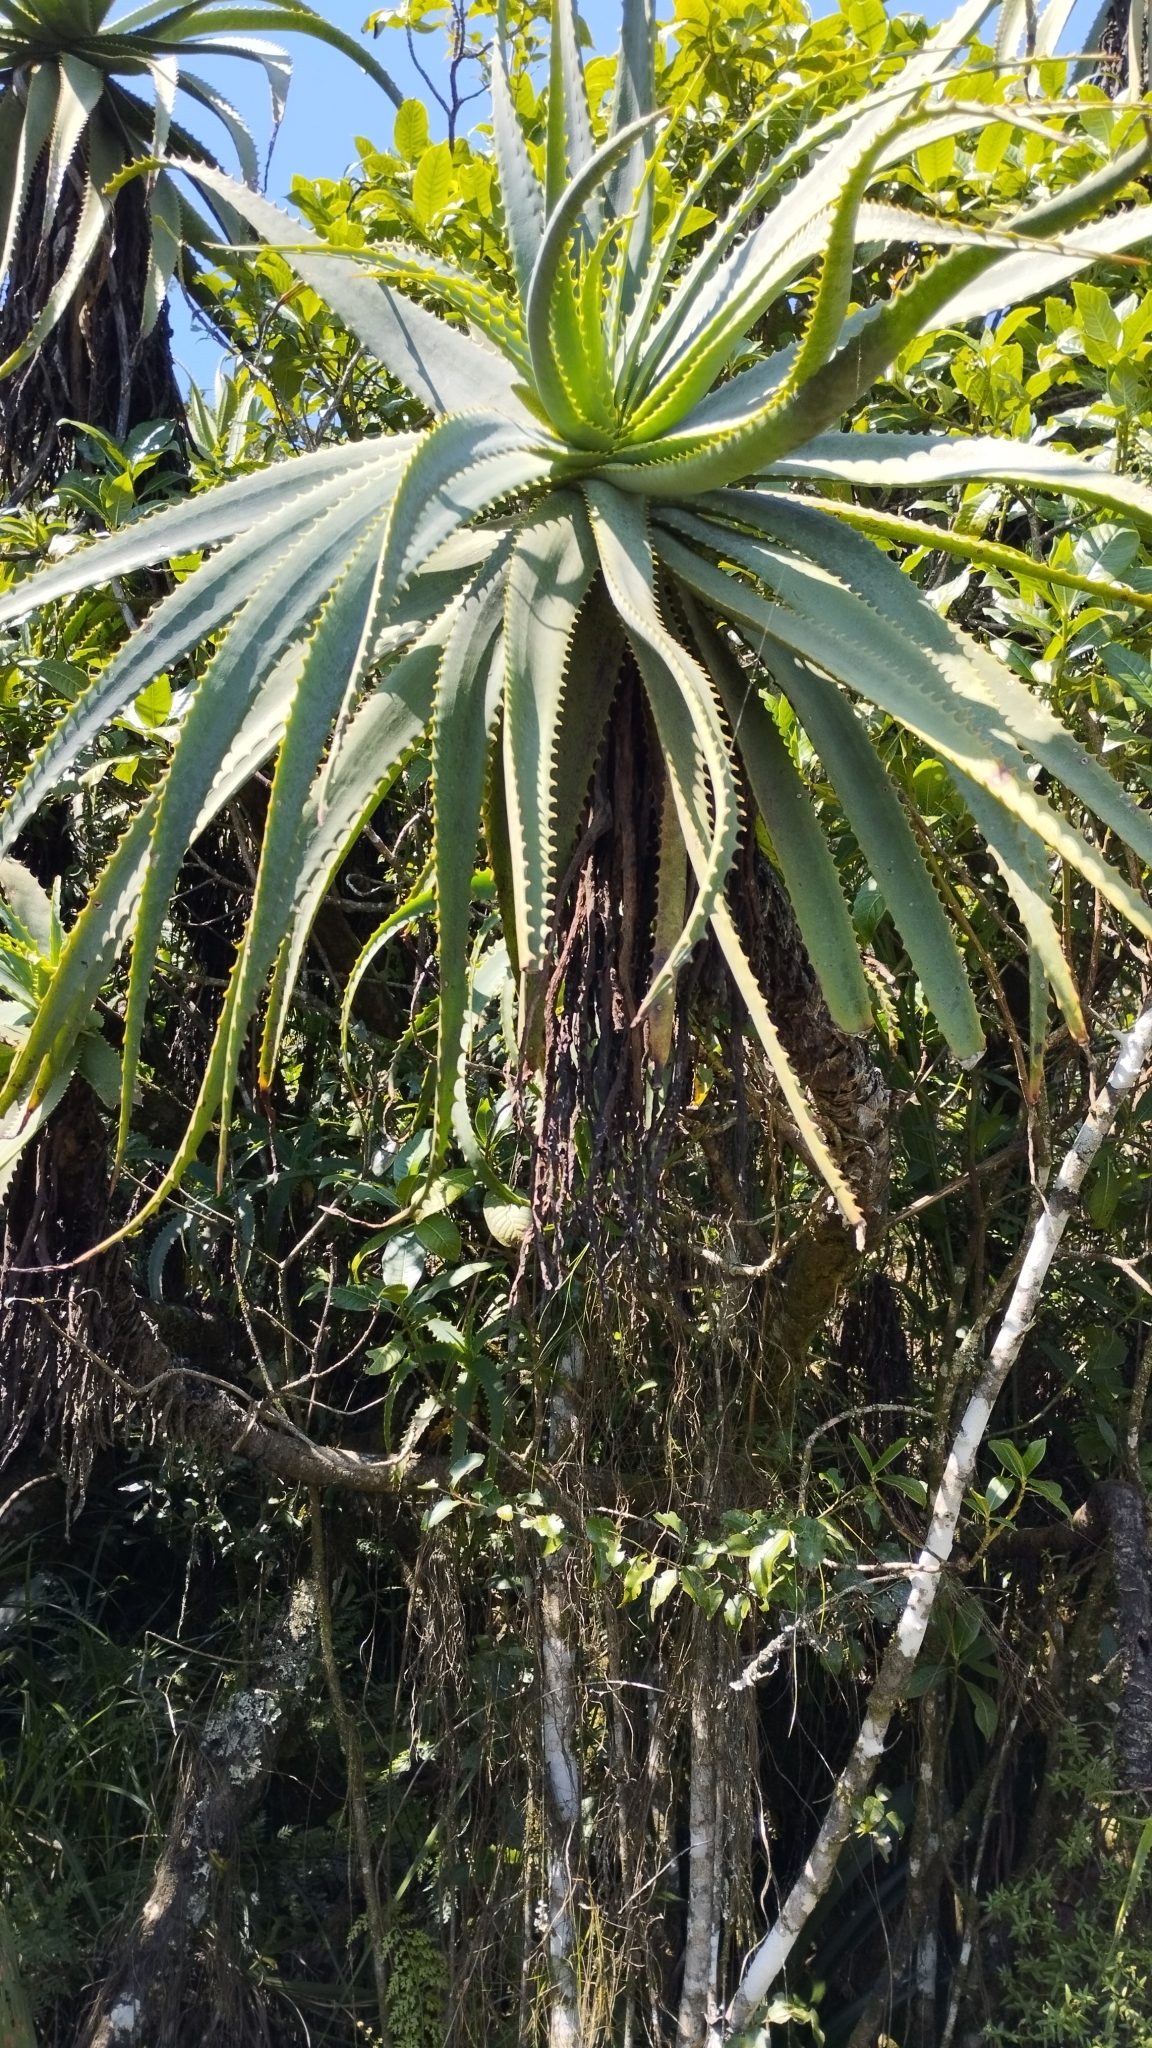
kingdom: Plantae
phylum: Tracheophyta
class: Liliopsida
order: Asparagales
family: Asphodelaceae
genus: Aloe
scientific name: Aloe arborescens
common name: Candelabra aloe
